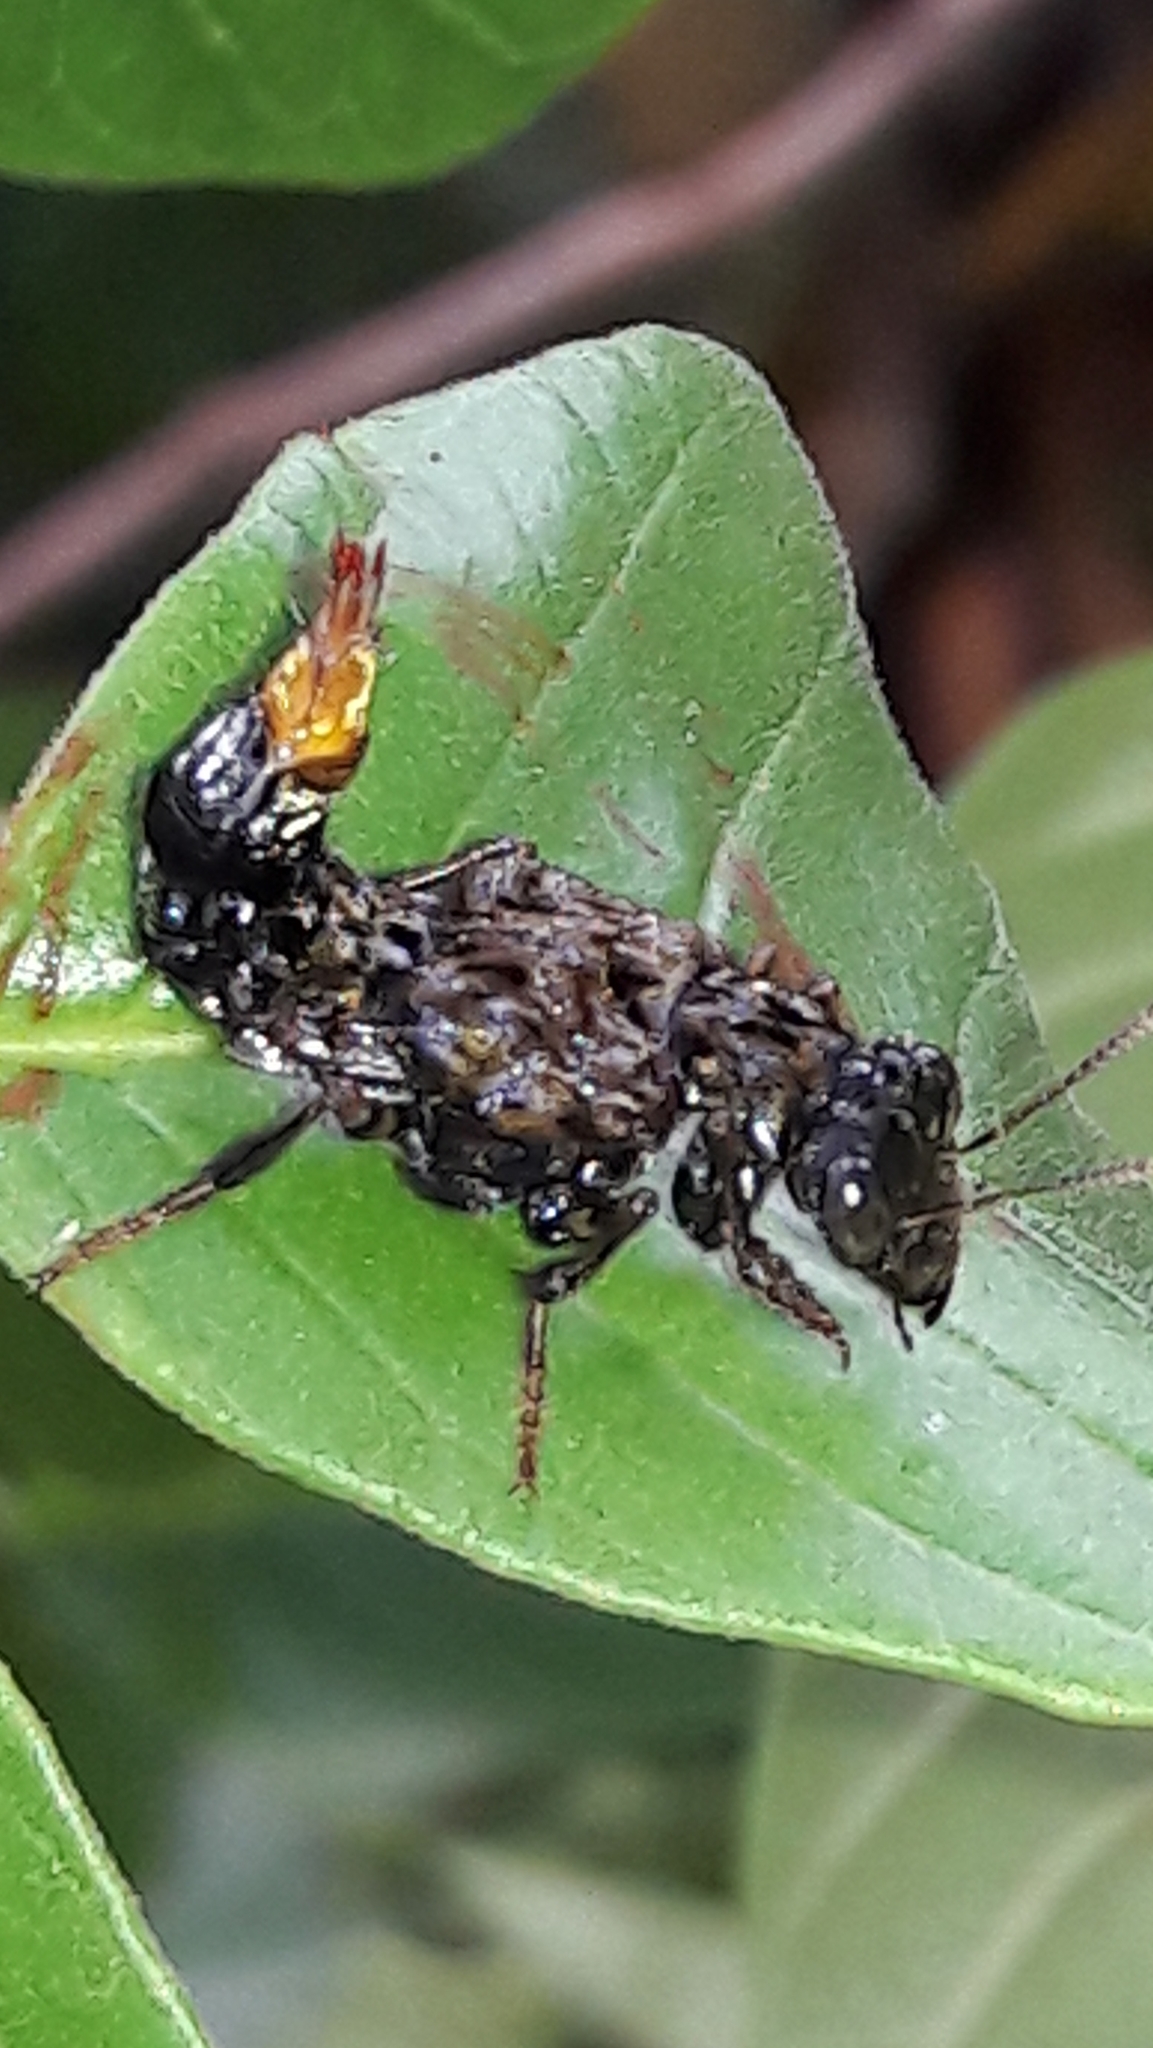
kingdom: Animalia
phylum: Arthropoda
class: Insecta
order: Coleoptera
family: Staphylinidae
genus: Leistotrophus
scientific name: Leistotrophus versicolor
